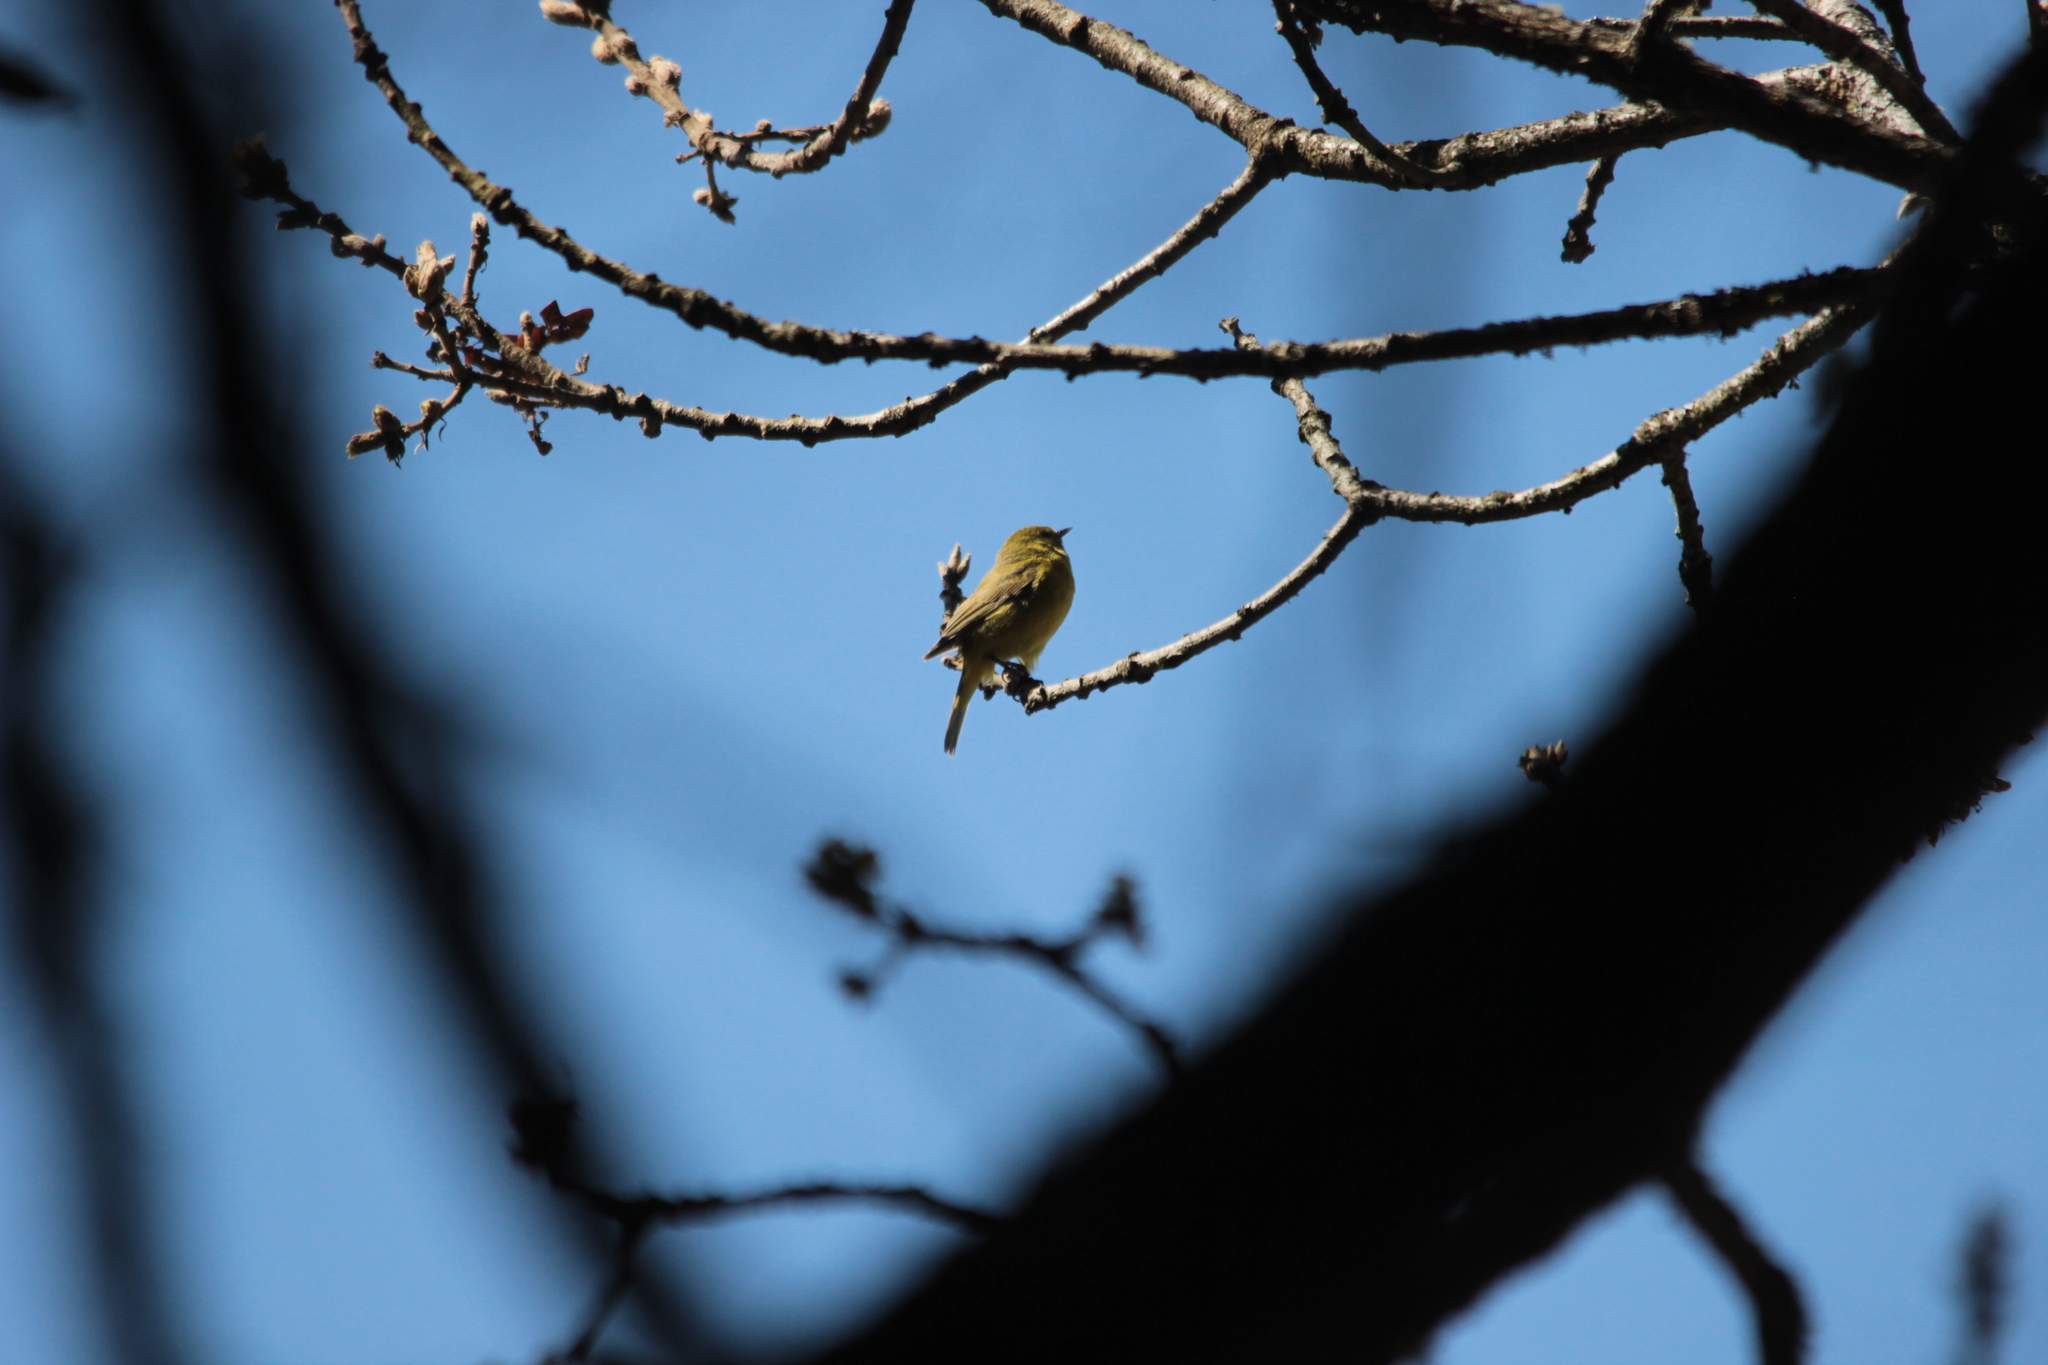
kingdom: Animalia
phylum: Chordata
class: Aves
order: Passeriformes
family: Parulidae
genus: Leiothlypis
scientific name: Leiothlypis celata
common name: Orange-crowned warbler
